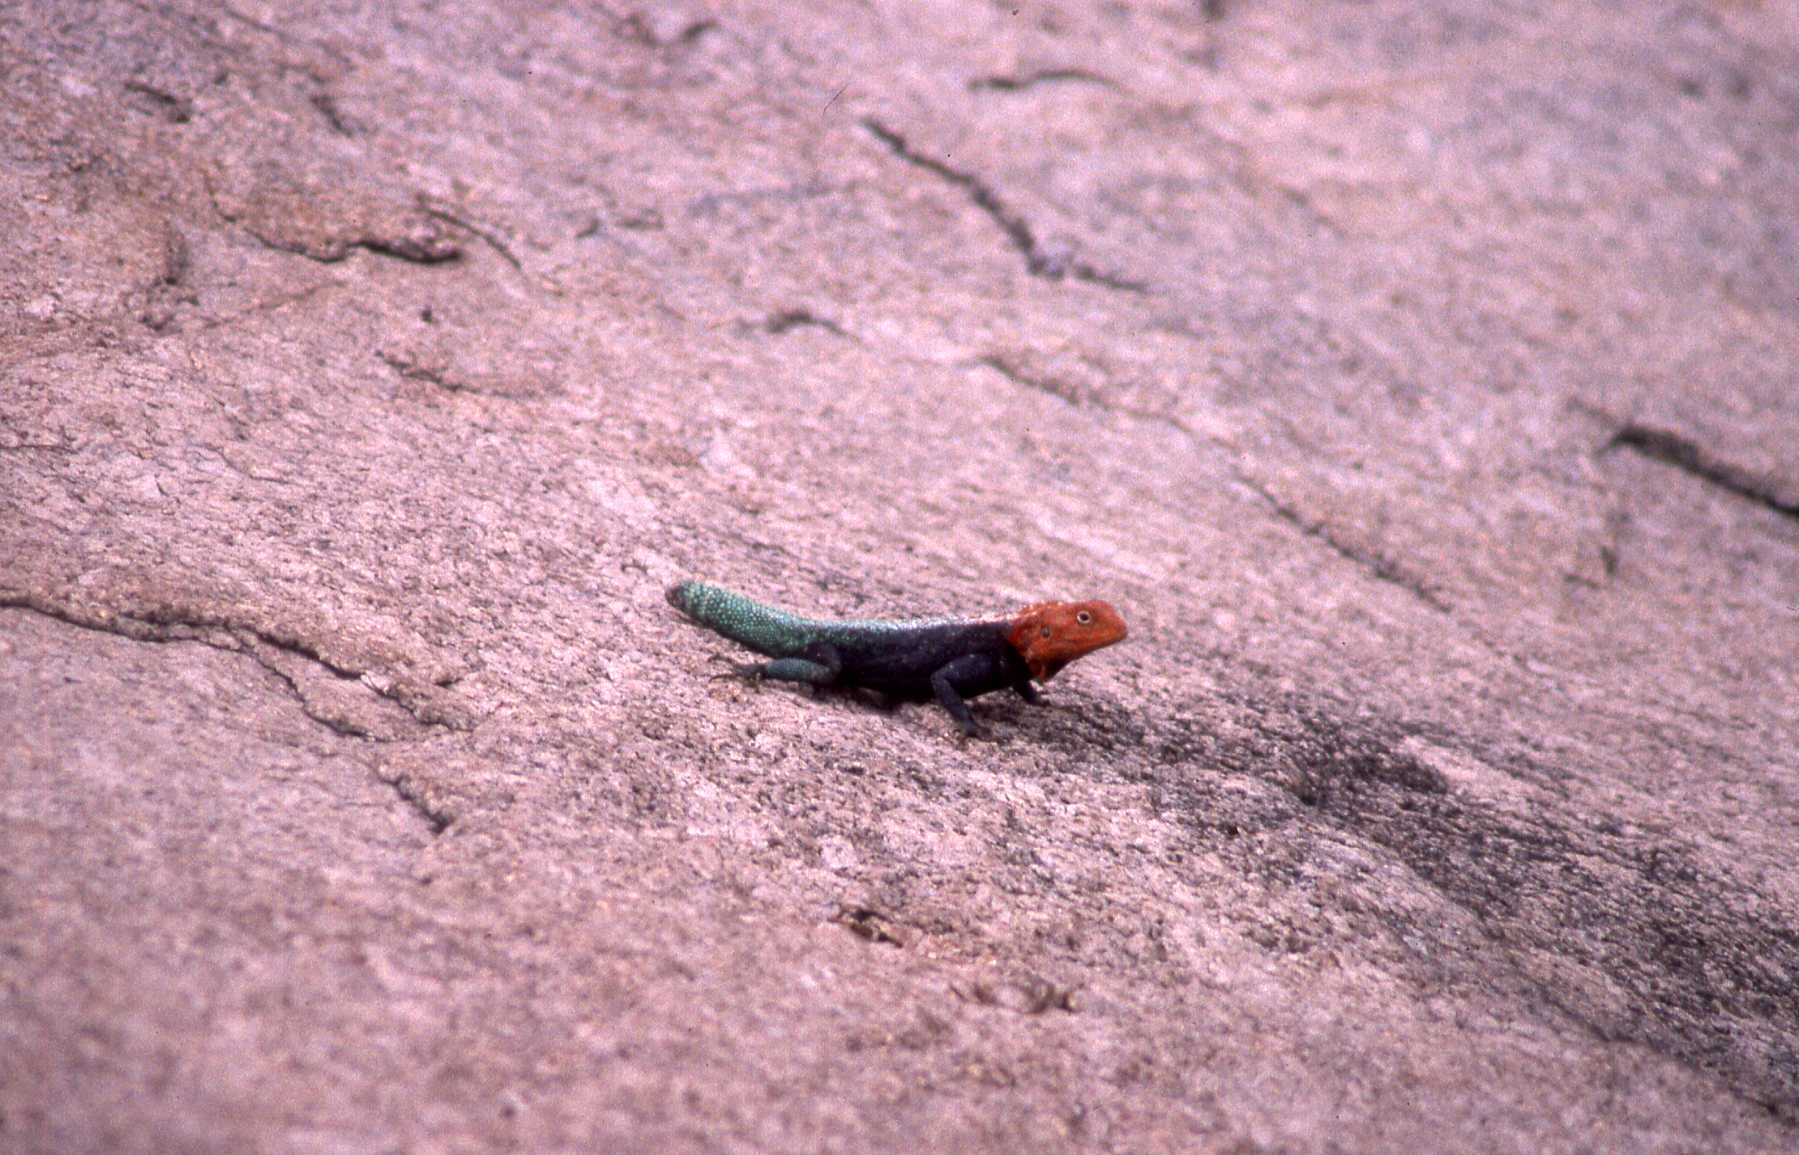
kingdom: Animalia
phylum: Chordata
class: Squamata
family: Agamidae
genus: Agama
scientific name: Agama kirkii
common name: Kirk's rock agama
